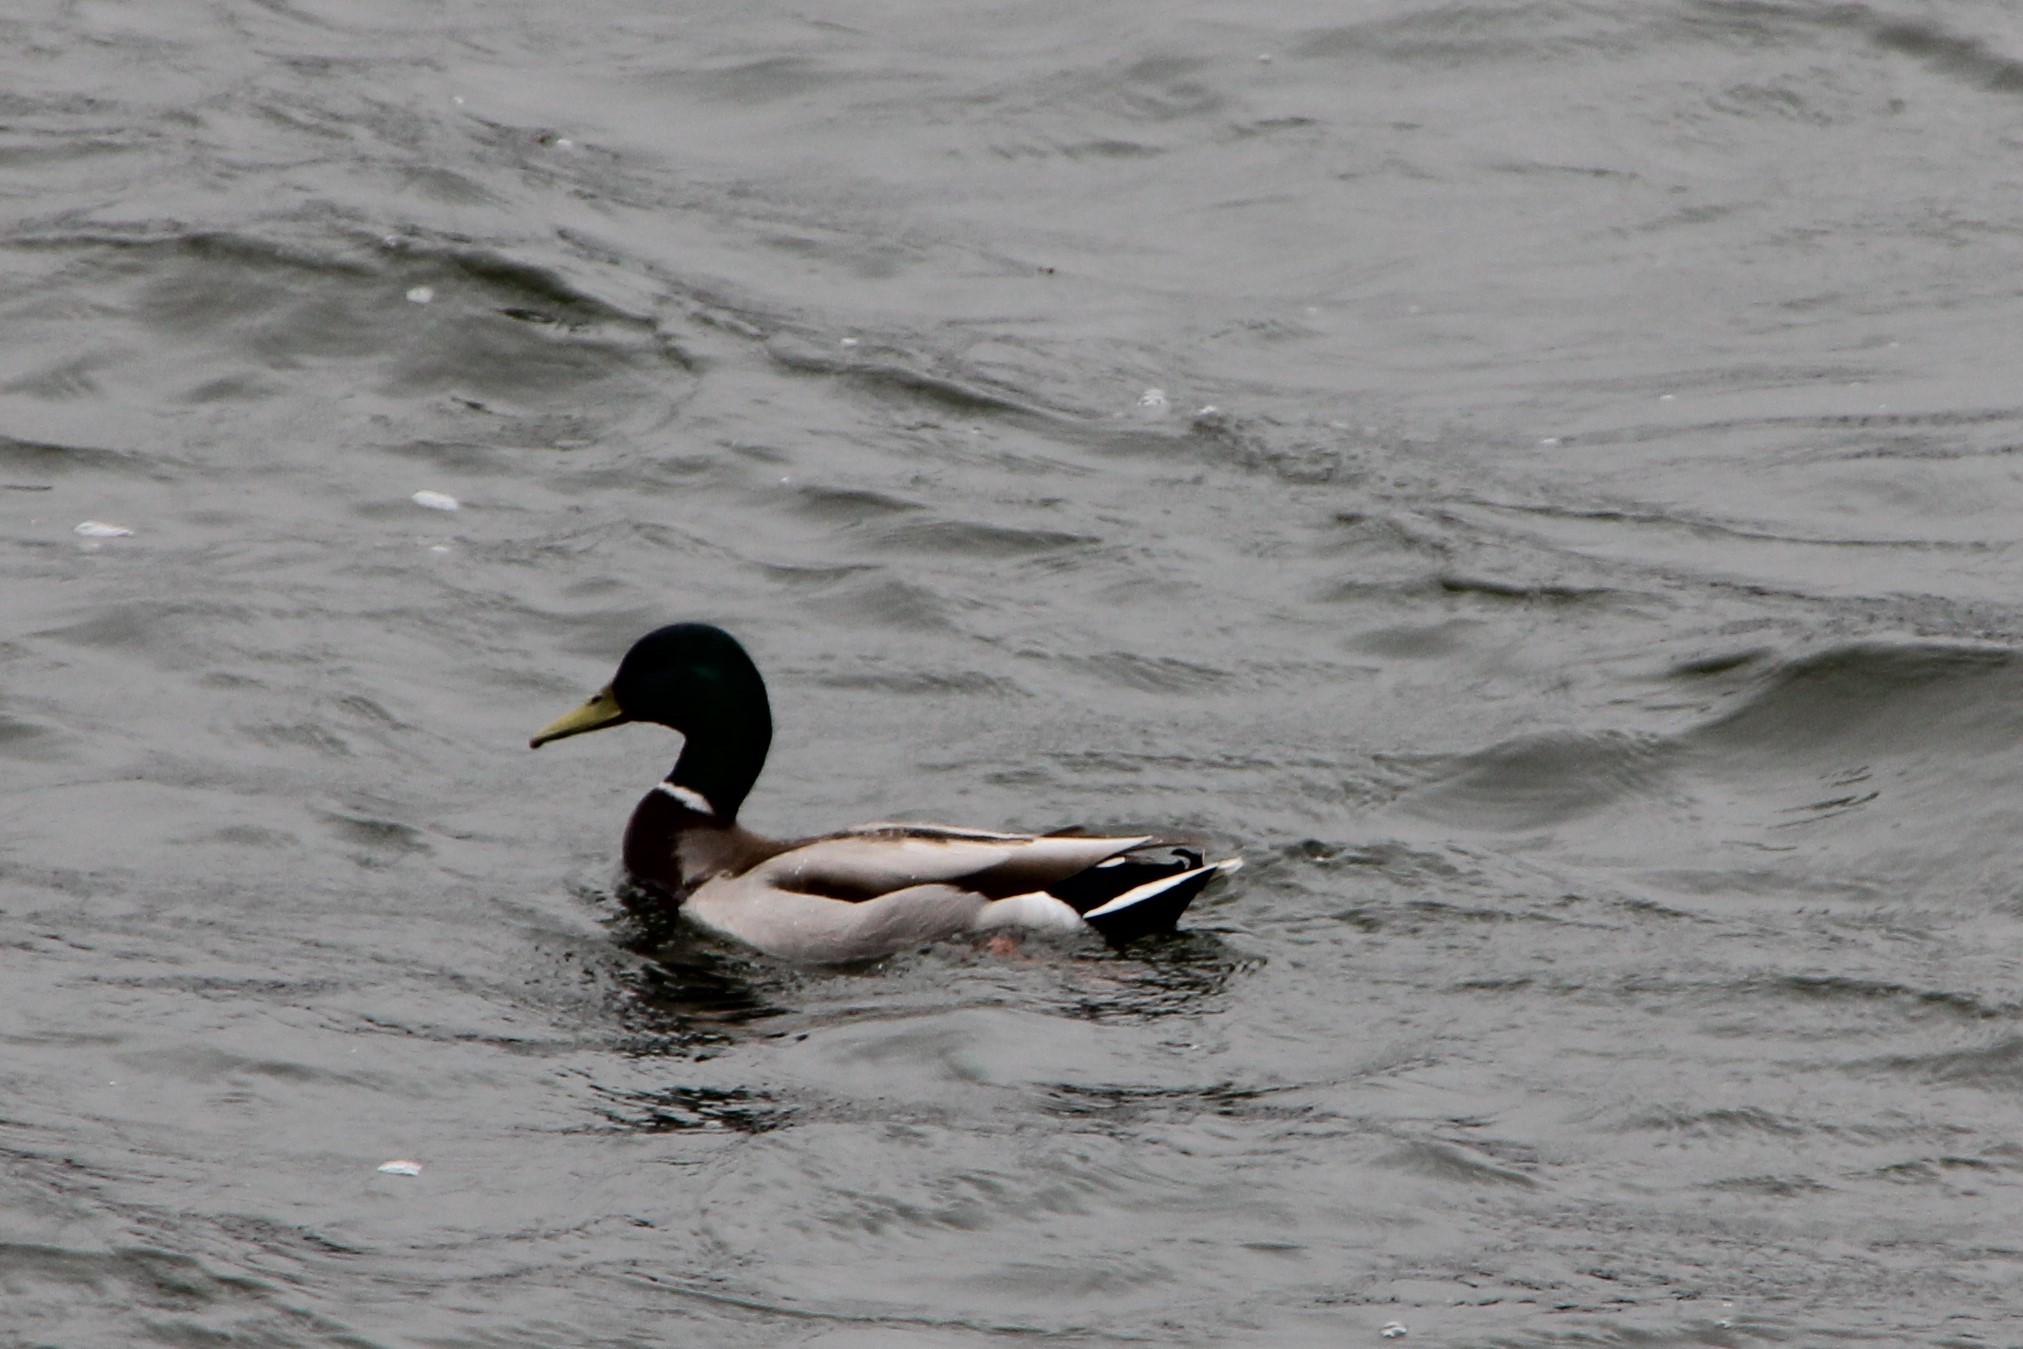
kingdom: Animalia
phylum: Chordata
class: Aves
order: Anseriformes
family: Anatidae
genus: Anas
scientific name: Anas platyrhynchos
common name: Mallard
